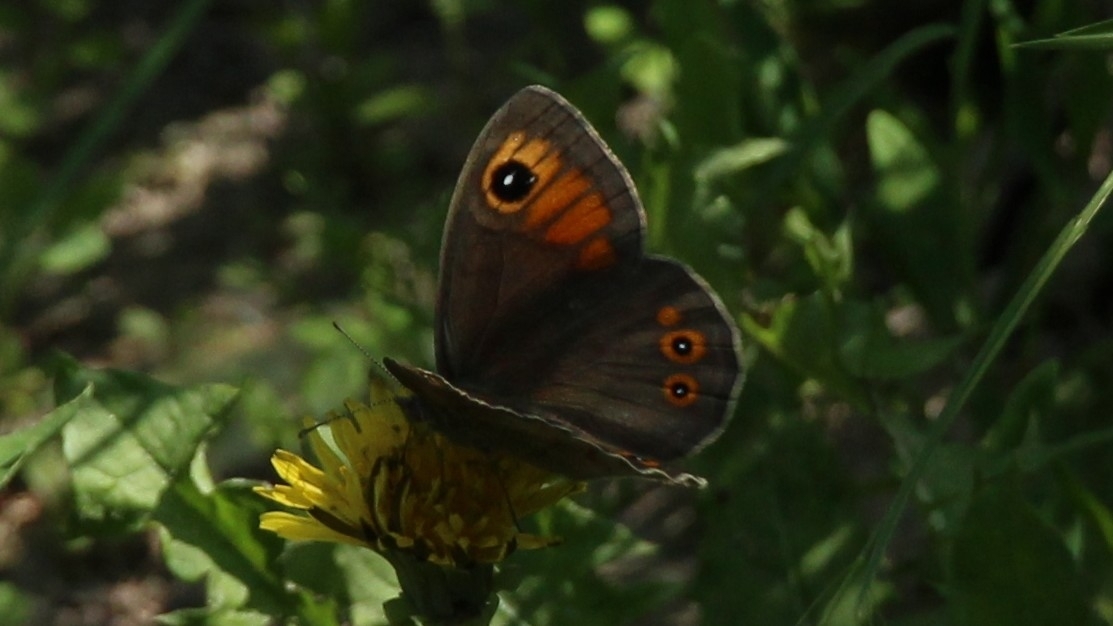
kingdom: Animalia
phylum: Arthropoda
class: Insecta
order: Lepidoptera
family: Nymphalidae
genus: Pararge
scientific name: Pararge Lasiommata maera
